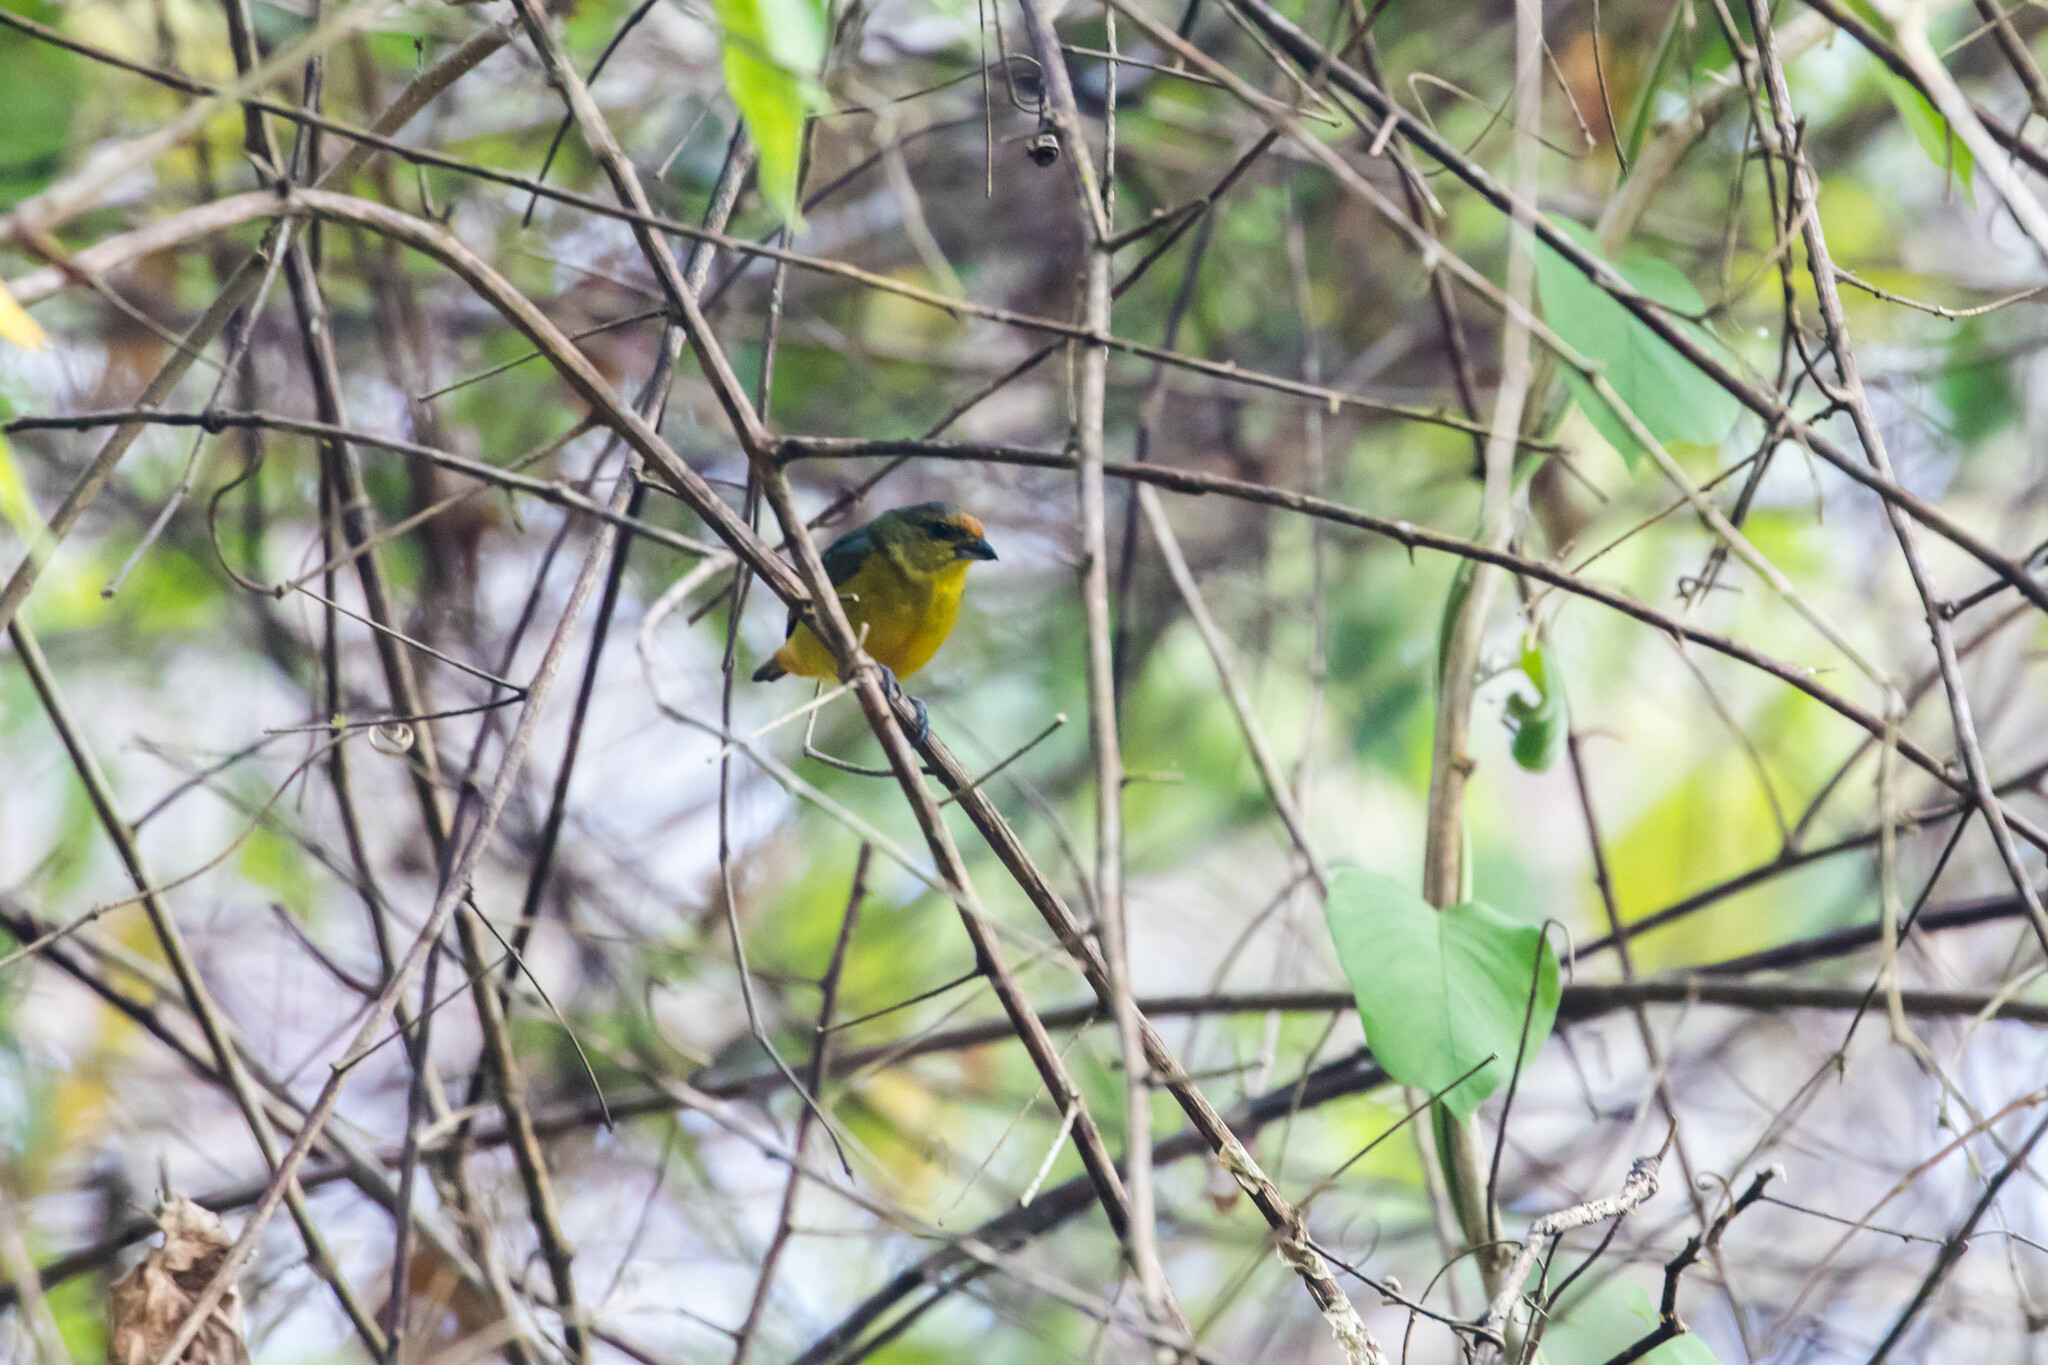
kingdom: Animalia
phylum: Chordata
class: Aves
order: Passeriformes
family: Fringillidae
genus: Euphonia
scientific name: Euphonia fulvicrissa
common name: Fulvous-vented euphonia
